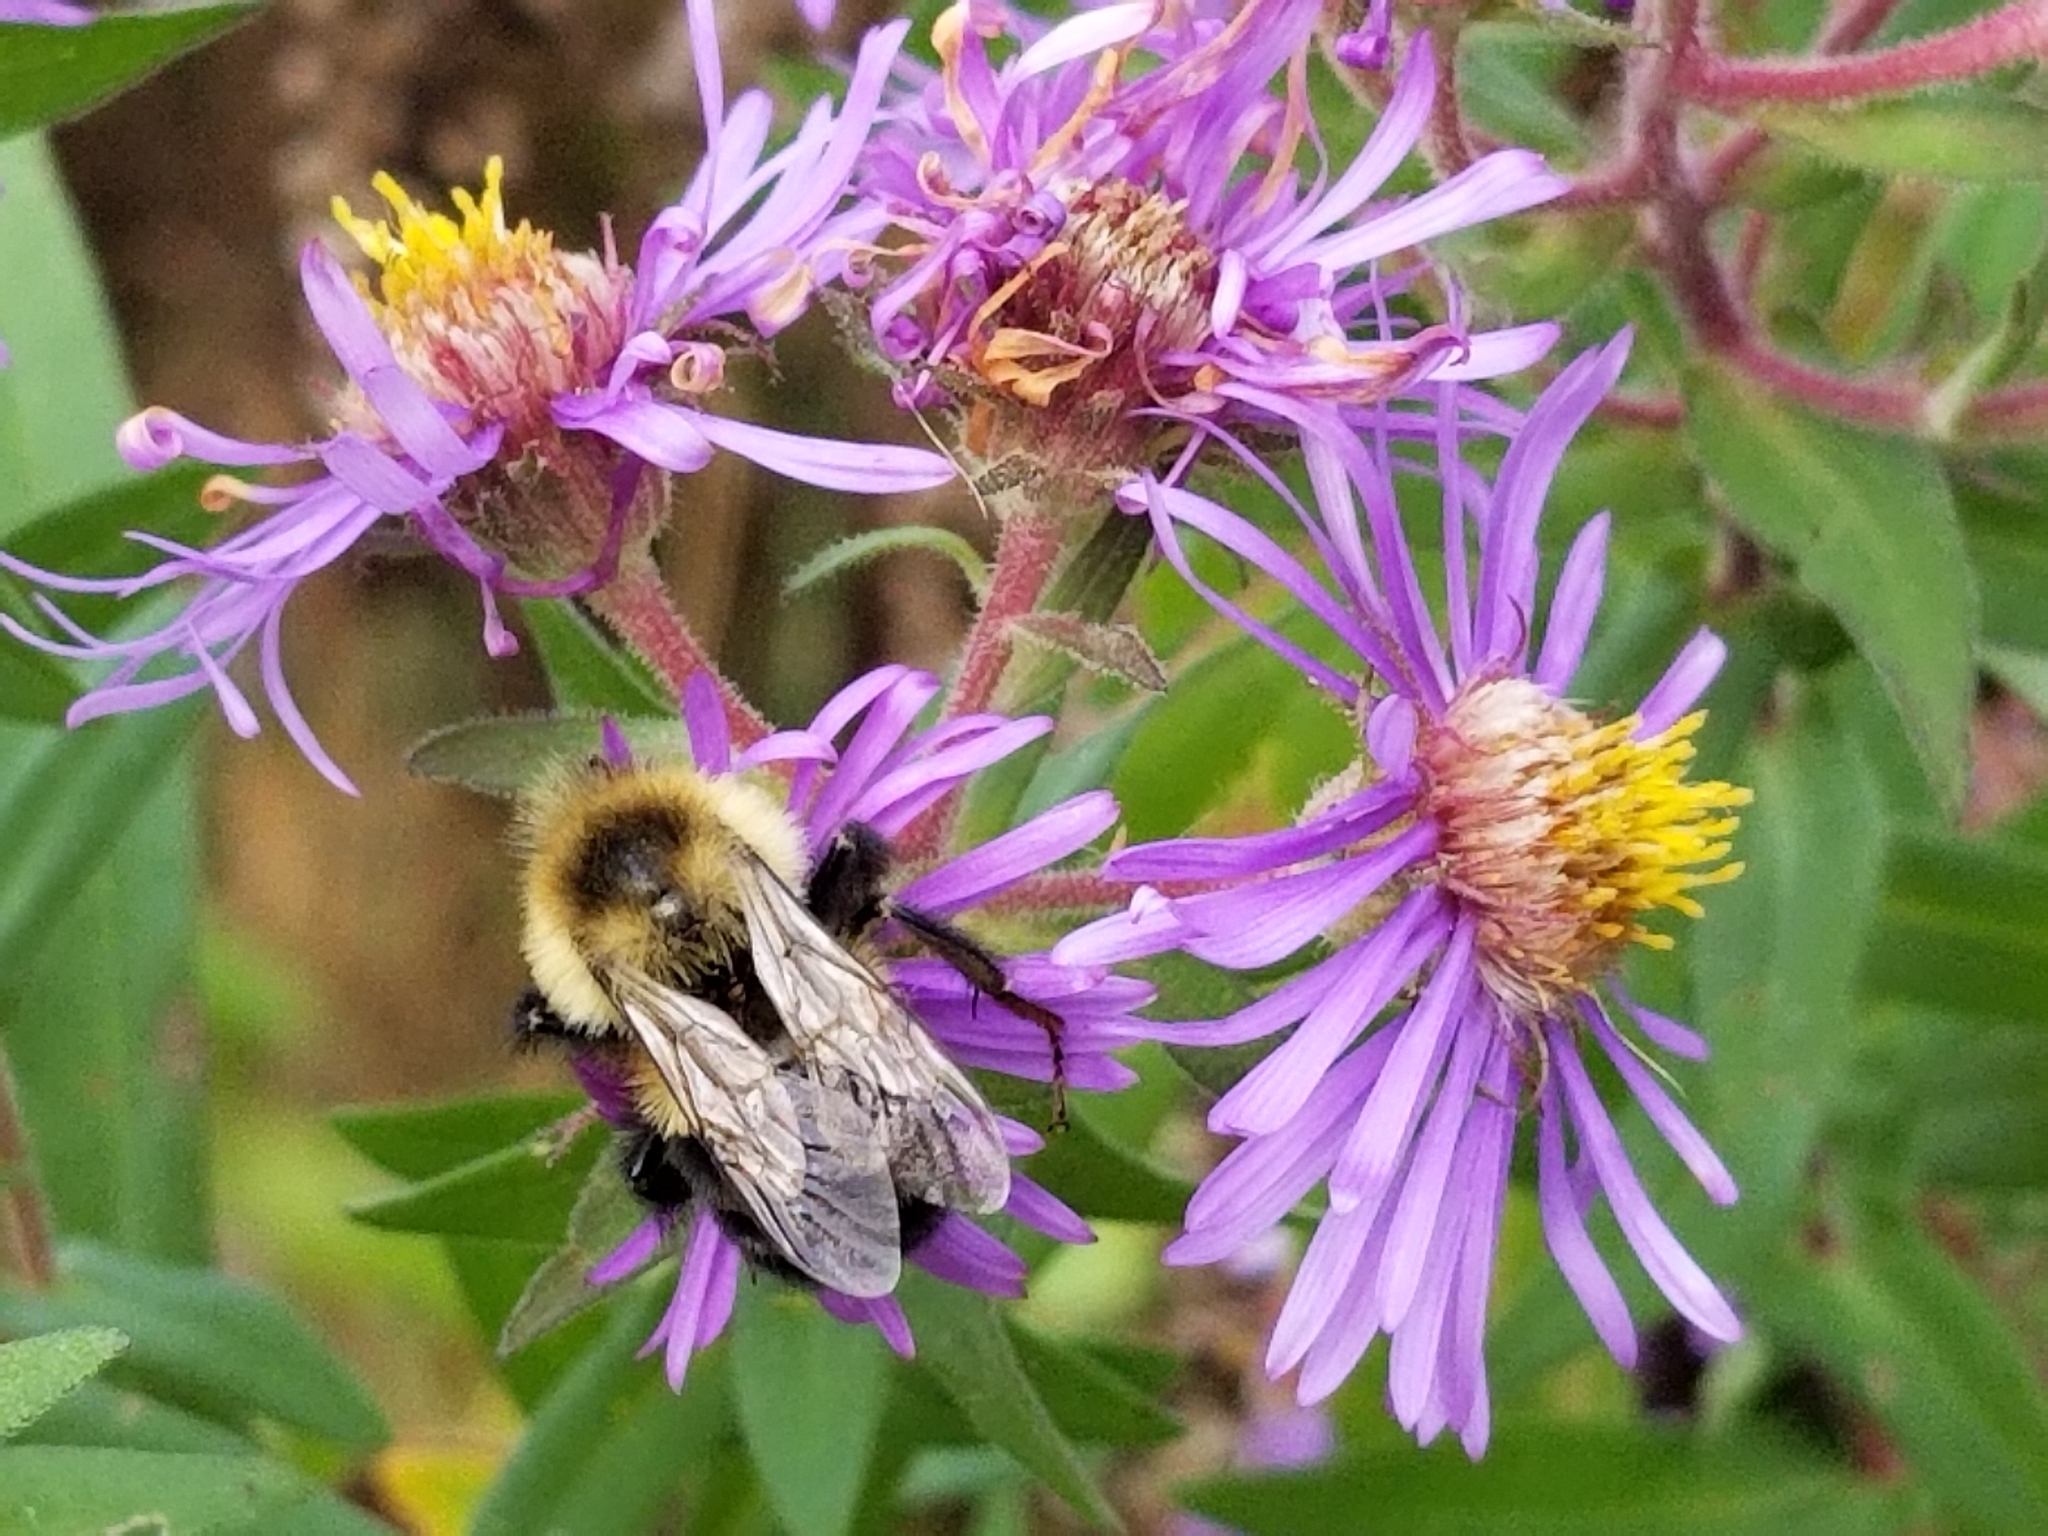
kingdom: Animalia
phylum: Arthropoda
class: Insecta
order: Hymenoptera
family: Apidae
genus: Bombus
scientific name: Bombus impatiens
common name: Common eastern bumble bee
